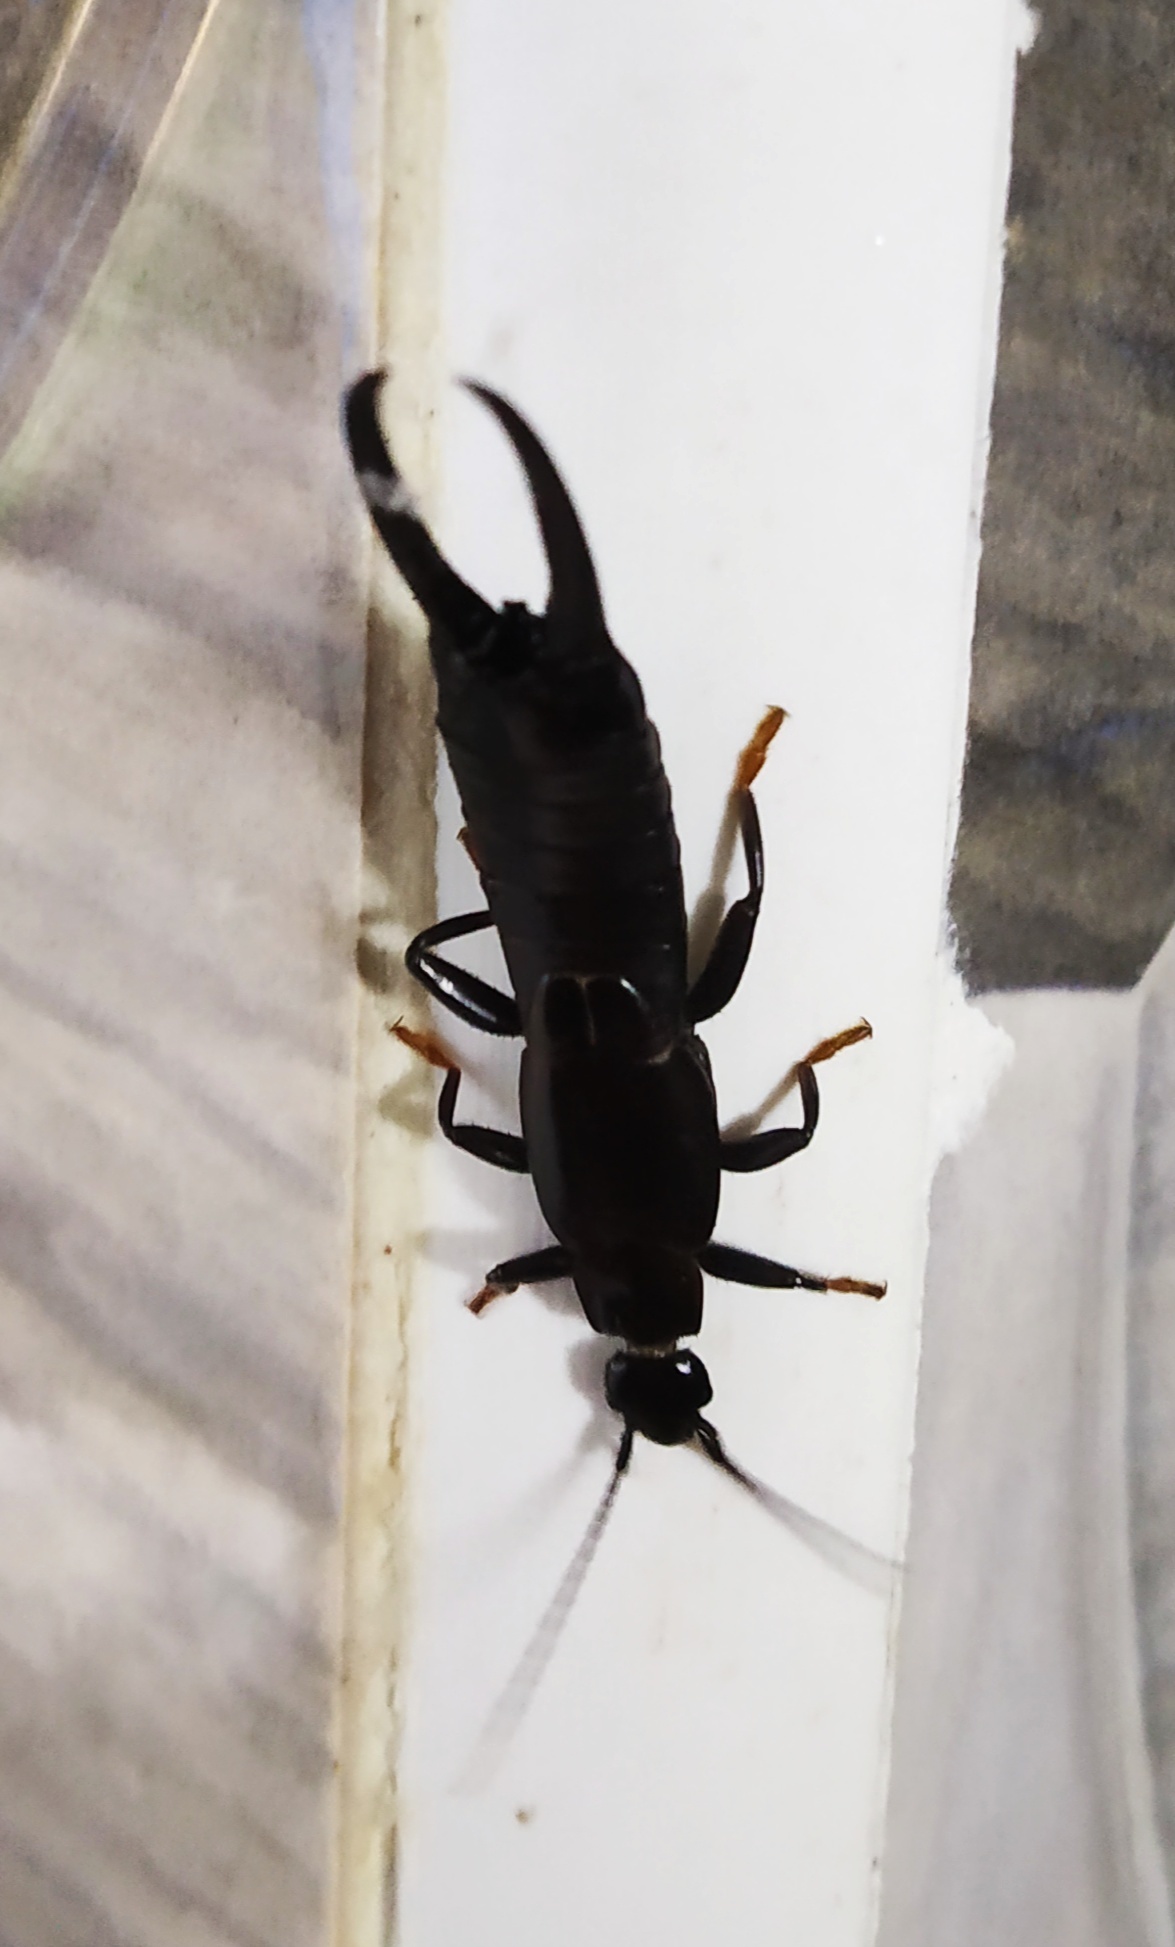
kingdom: Animalia
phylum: Arthropoda
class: Insecta
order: Dermaptera
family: Chelisochidae
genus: Chelisoches
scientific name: Chelisoches morio
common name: Black earwig
